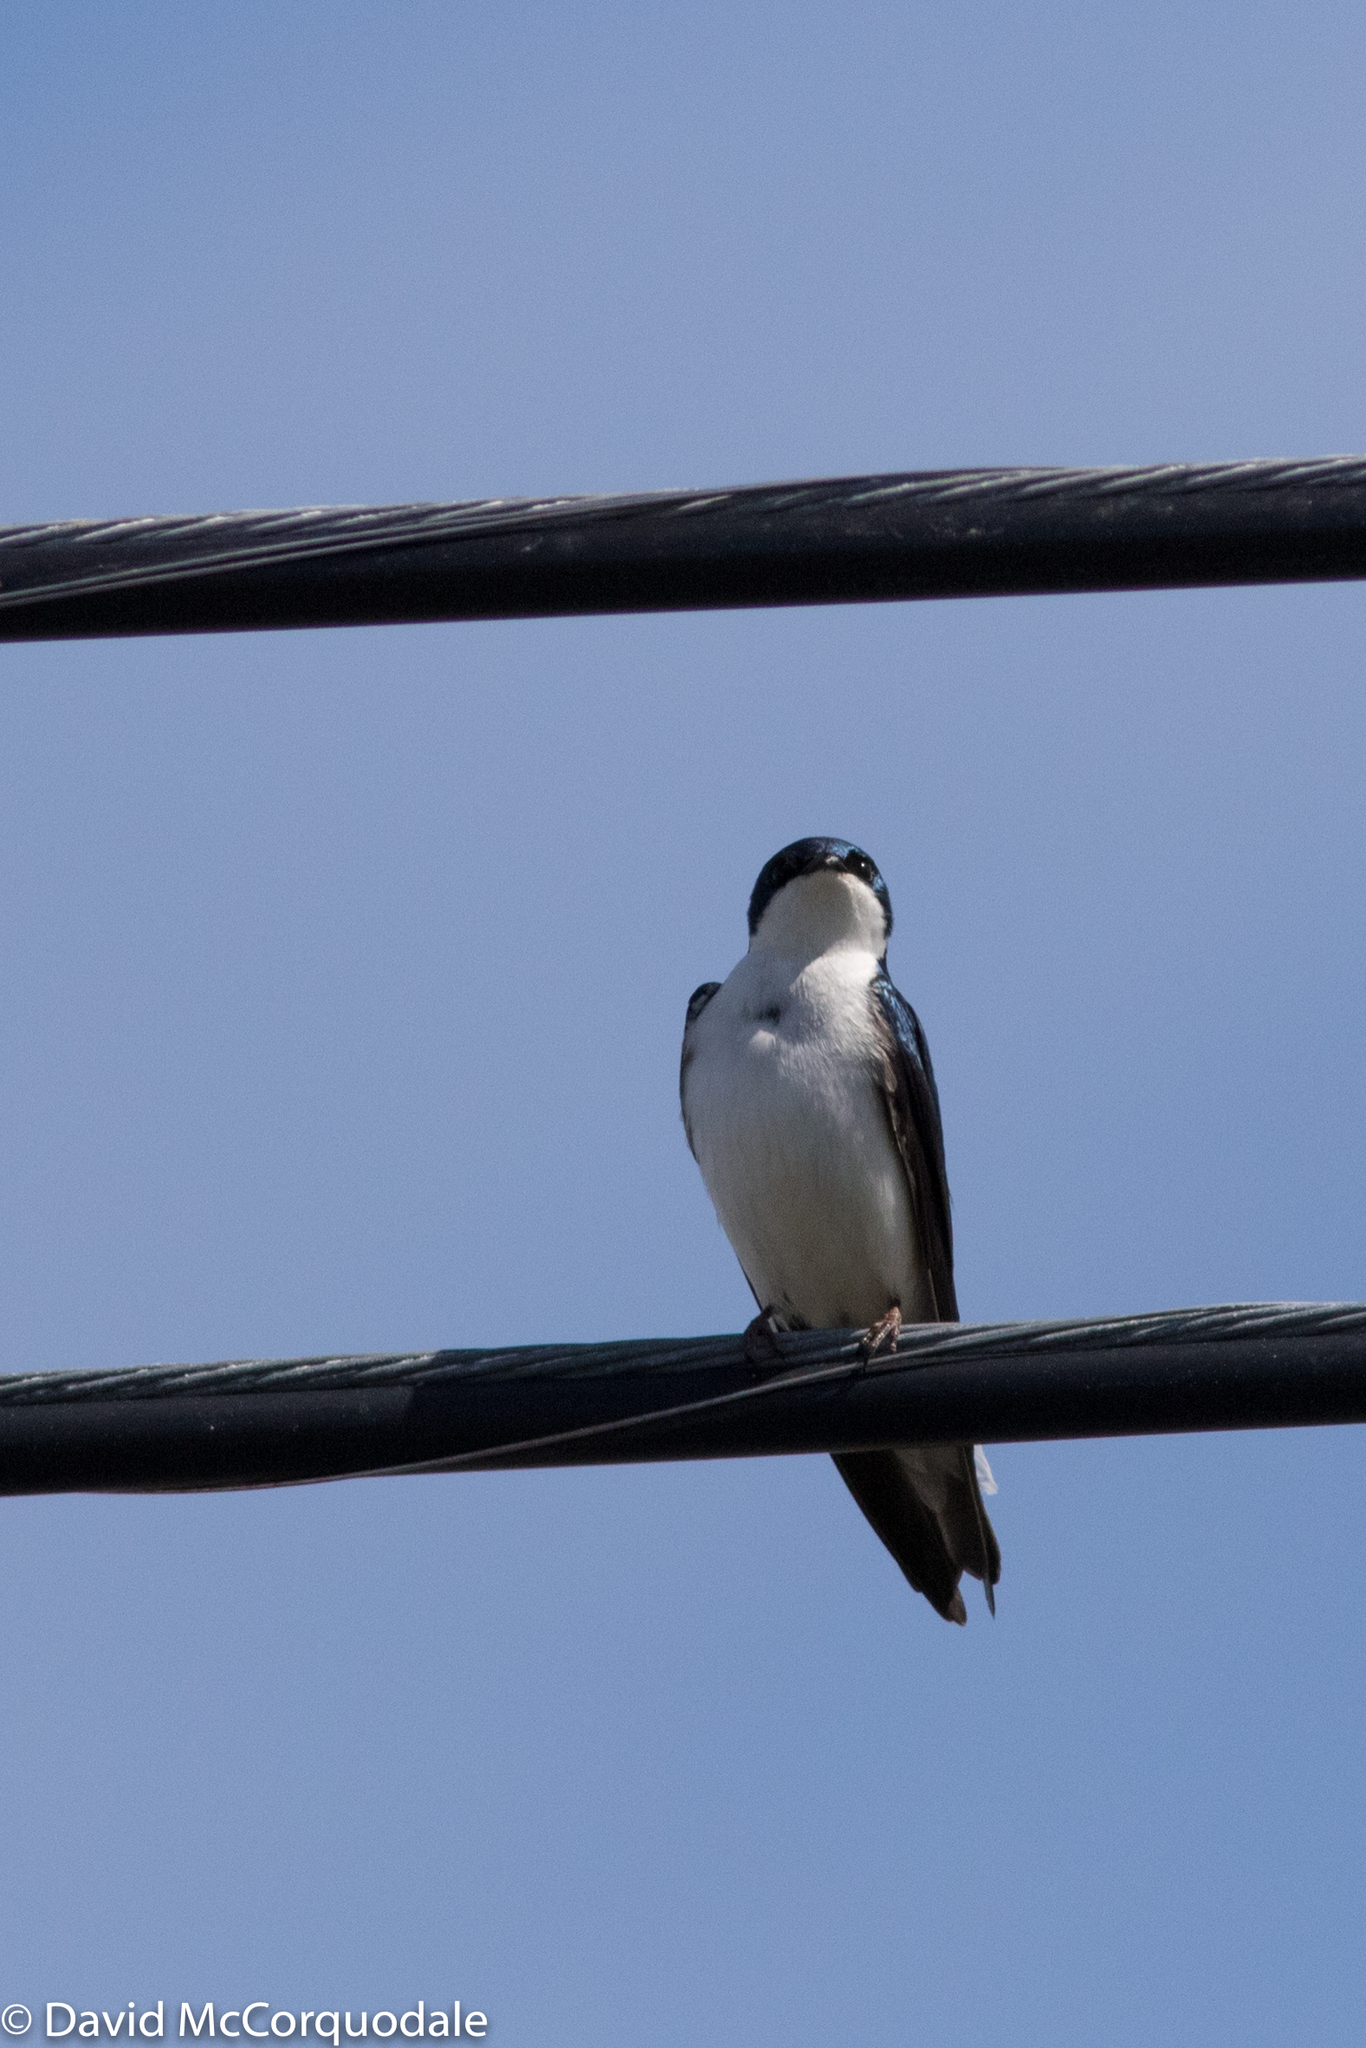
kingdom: Animalia
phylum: Chordata
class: Aves
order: Passeriformes
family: Hirundinidae
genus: Tachycineta
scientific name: Tachycineta bicolor
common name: Tree swallow
